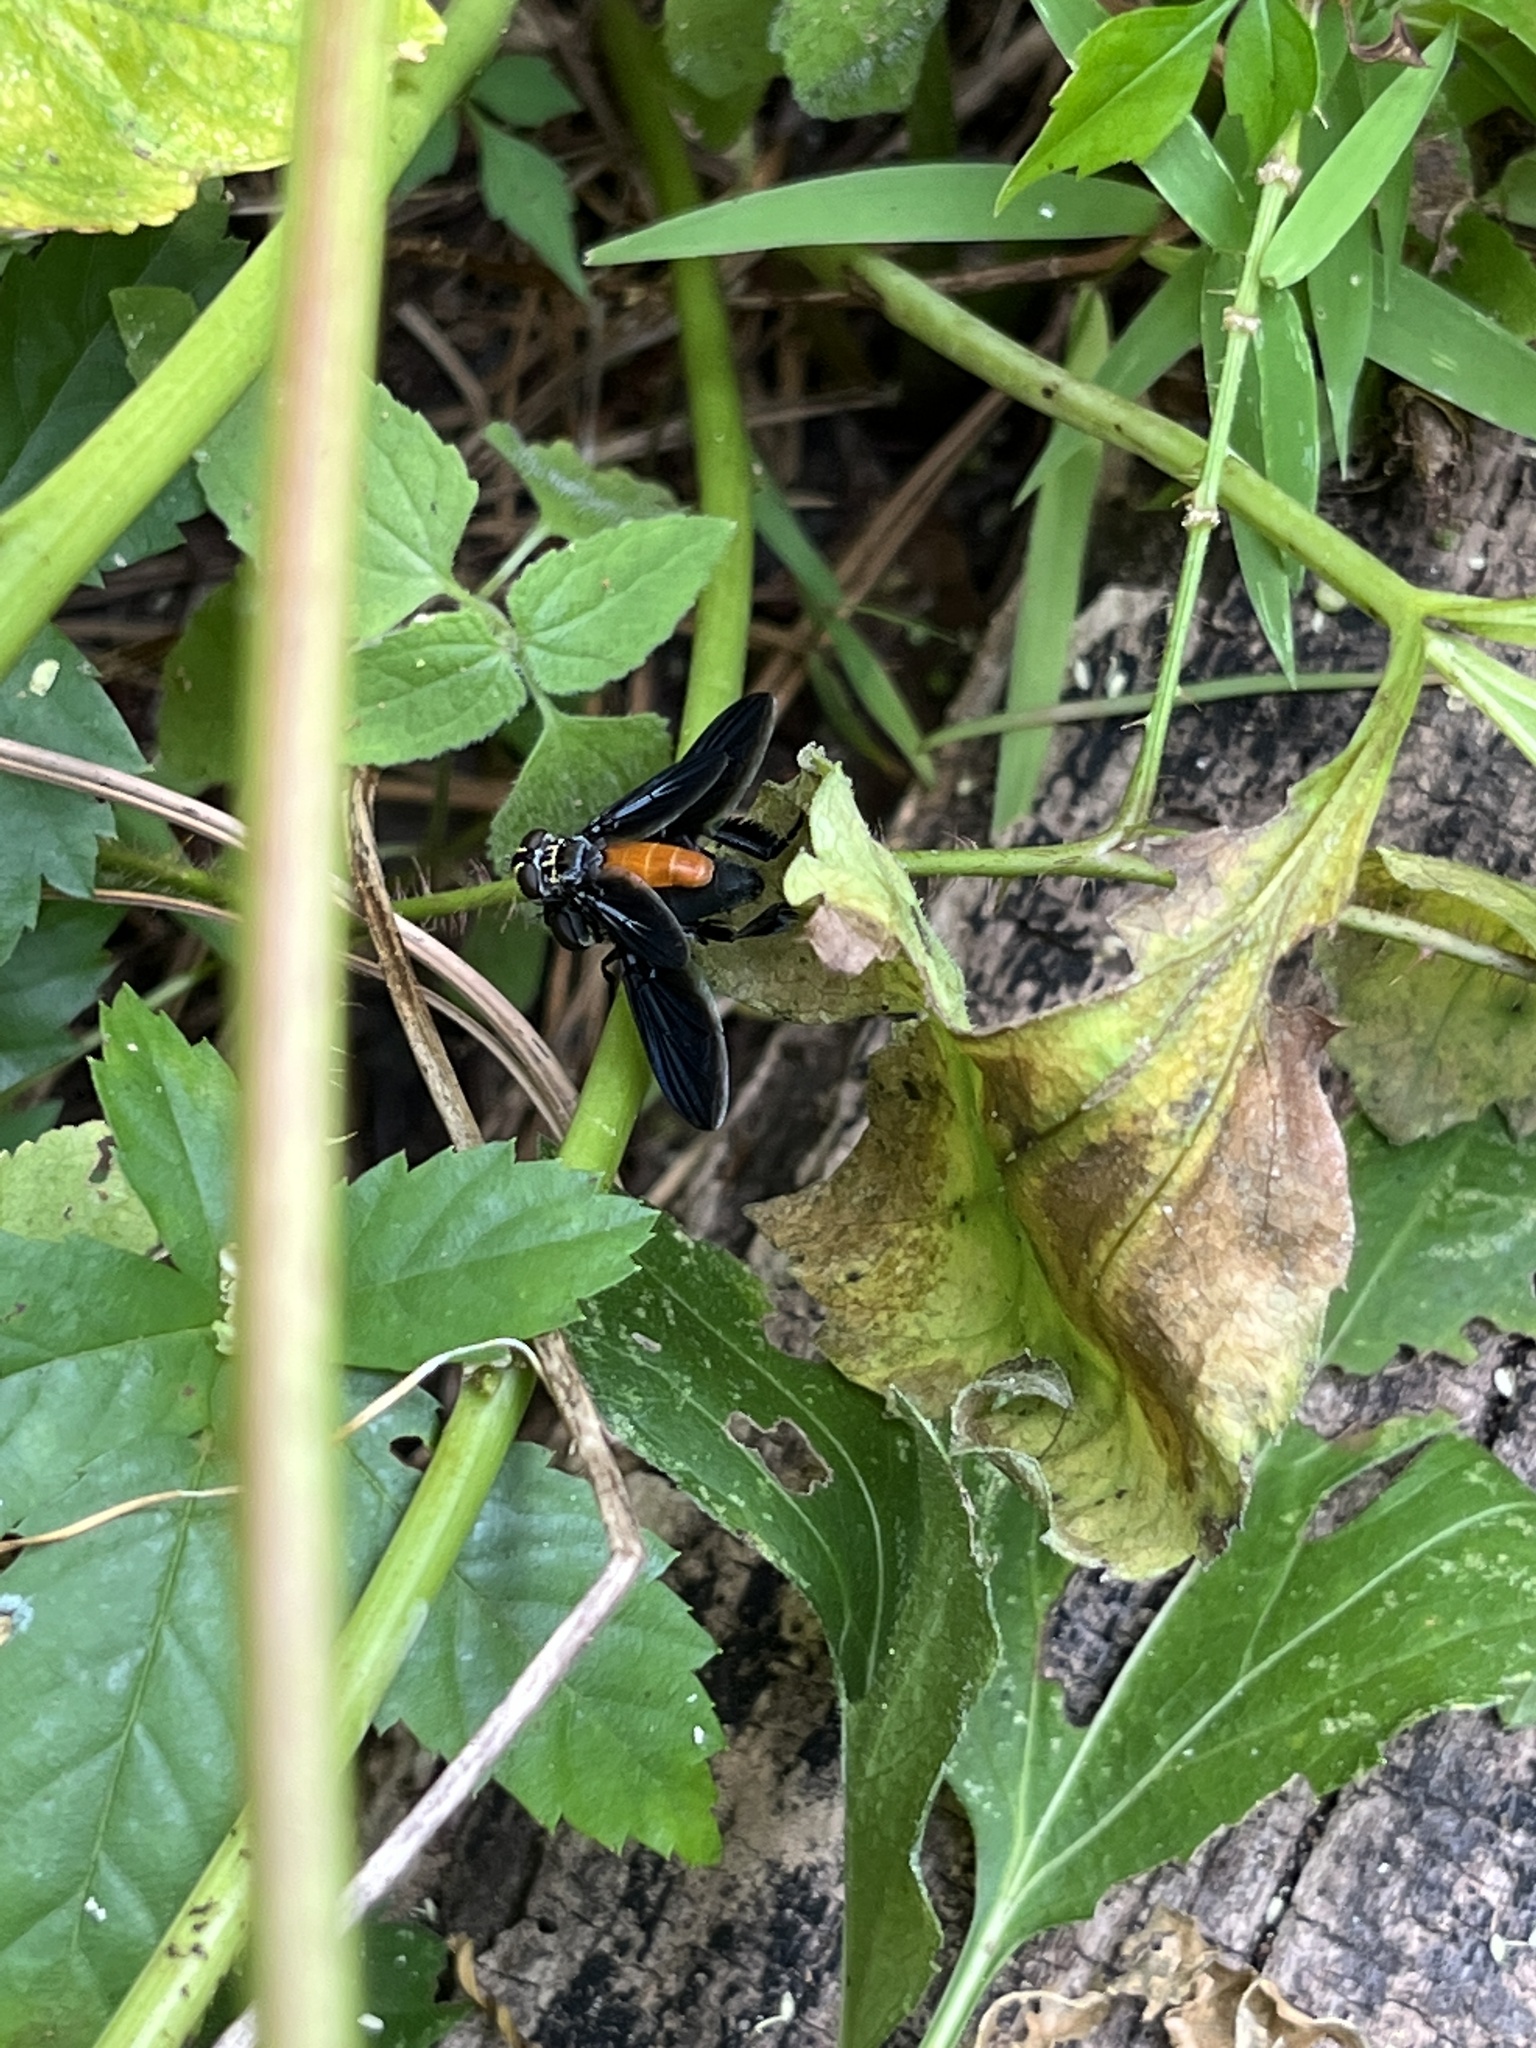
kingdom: Animalia
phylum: Arthropoda
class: Insecta
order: Diptera
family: Tachinidae
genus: Trichopoda
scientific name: Trichopoda pennipes
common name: Tachinid fly
